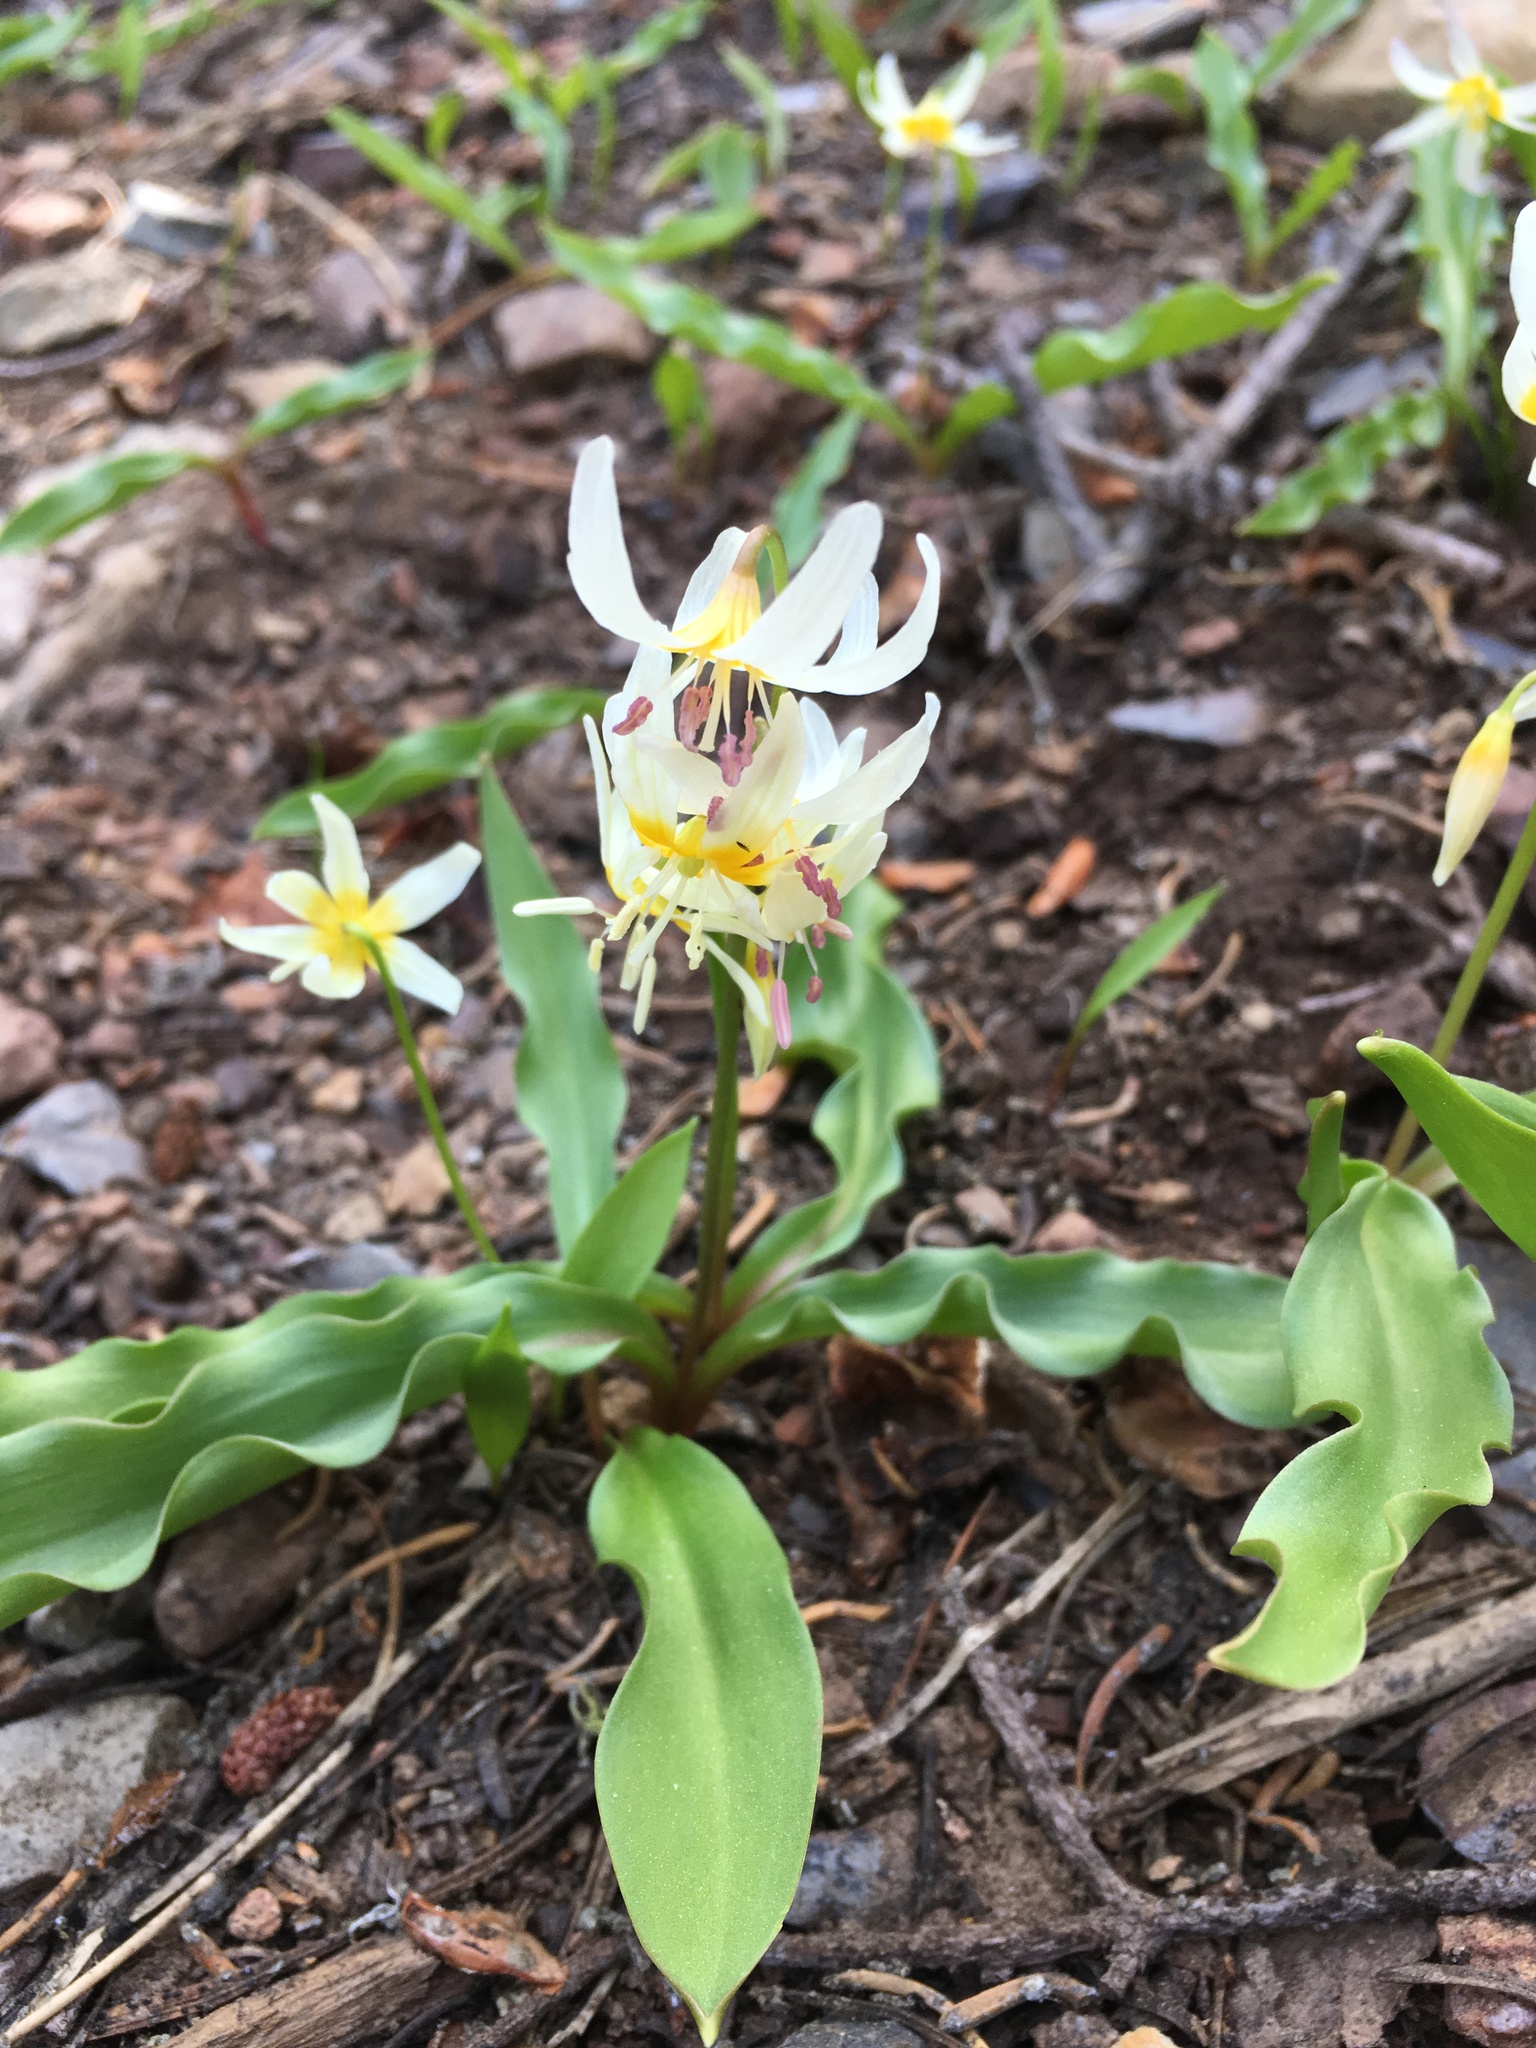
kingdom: Plantae
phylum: Tracheophyta
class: Liliopsida
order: Liliales
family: Liliaceae
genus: Erythronium
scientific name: Erythronium purpurascens
